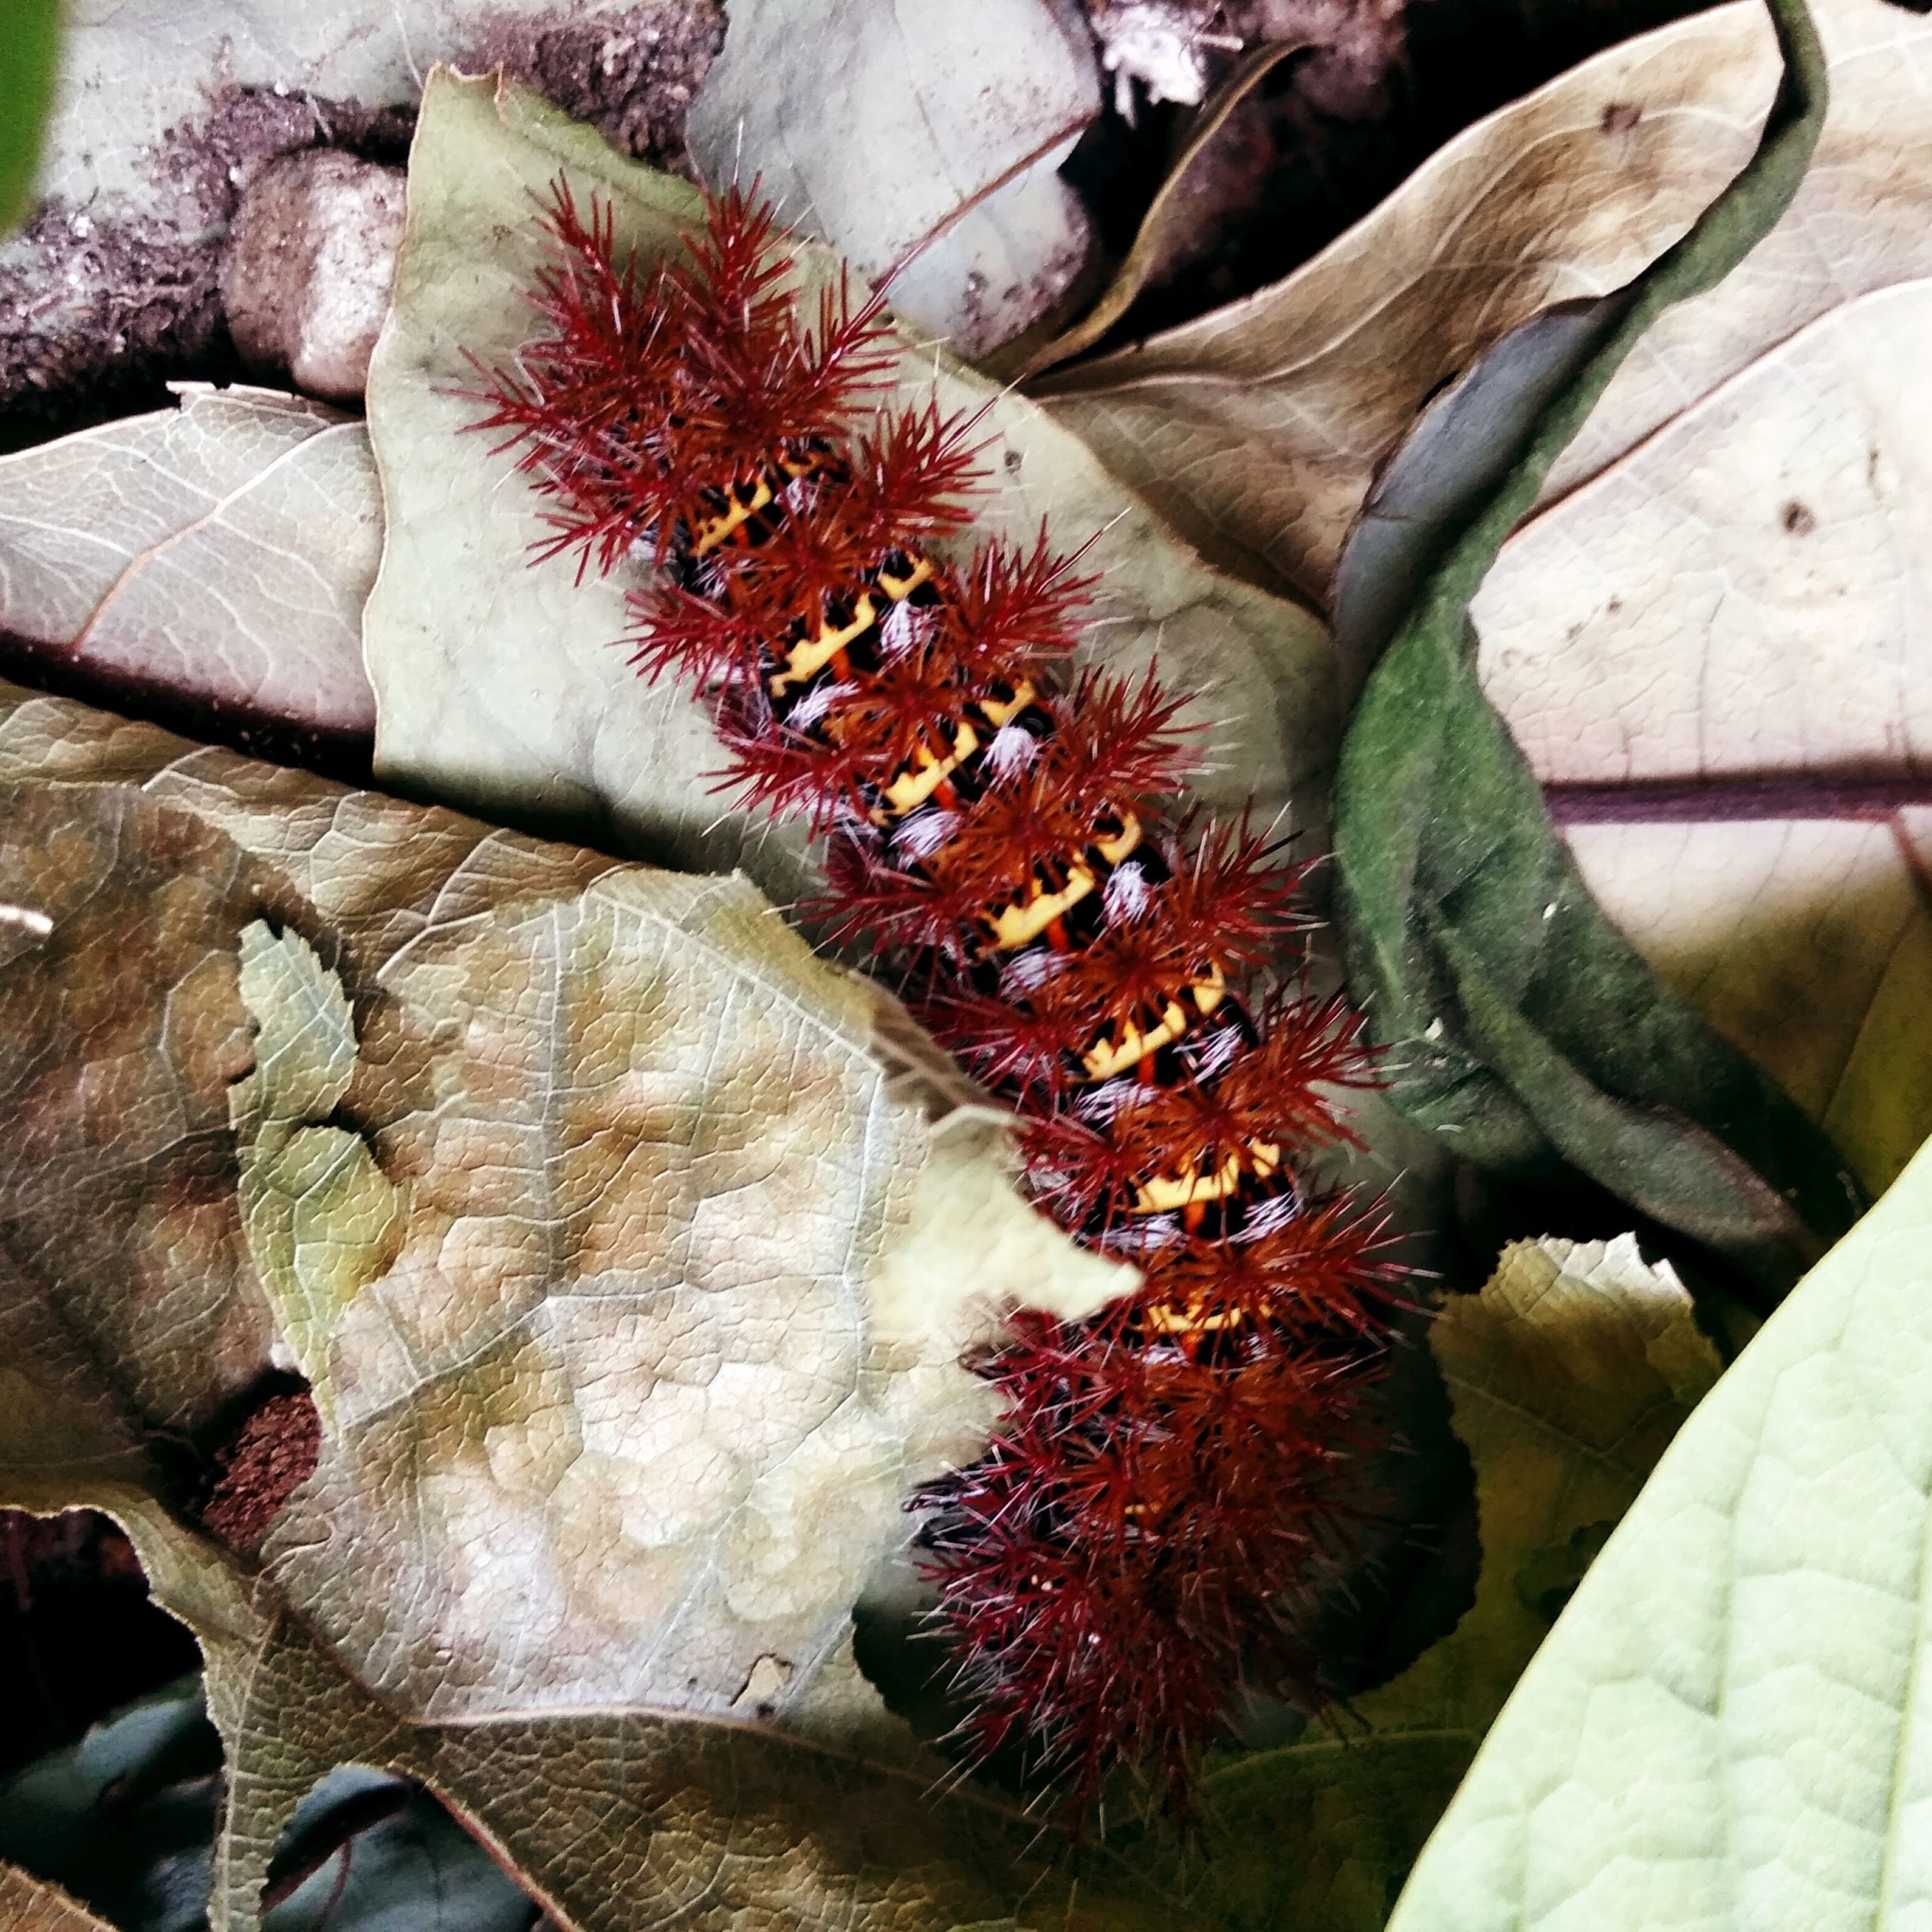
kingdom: Animalia
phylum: Arthropoda
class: Insecta
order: Lepidoptera
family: Saturniidae
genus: Ormiscodes
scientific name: Ormiscodes cinnamomea
